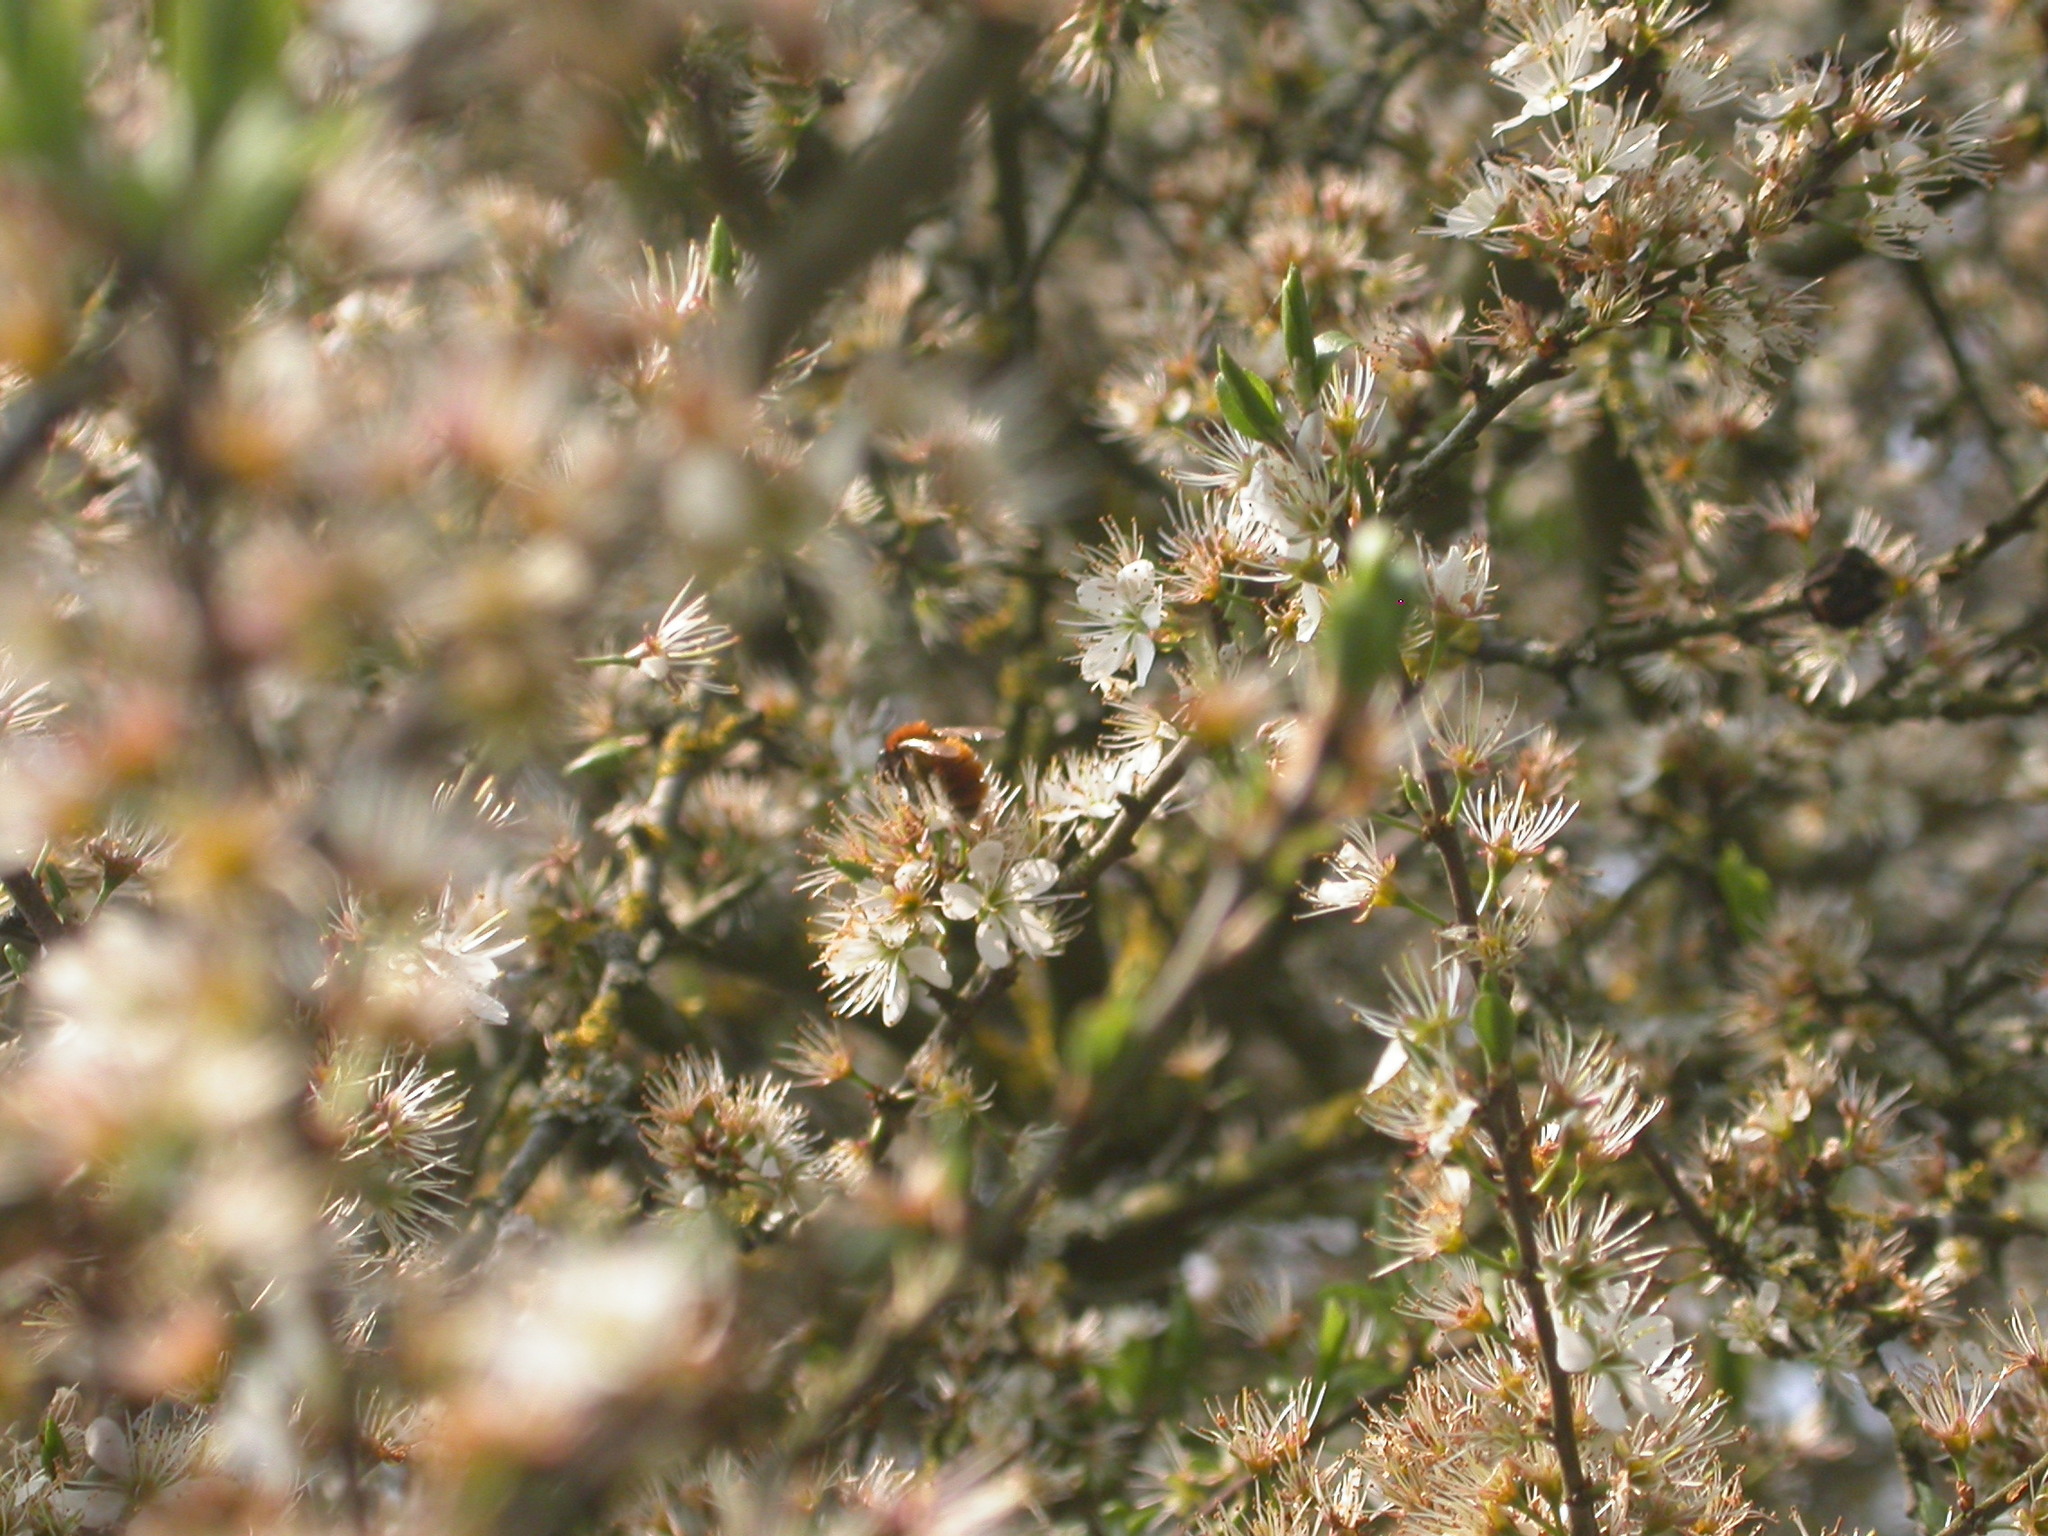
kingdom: Animalia
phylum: Arthropoda
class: Insecta
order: Hymenoptera
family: Andrenidae
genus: Andrena
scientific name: Andrena fulva
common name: Tawny mining bee
